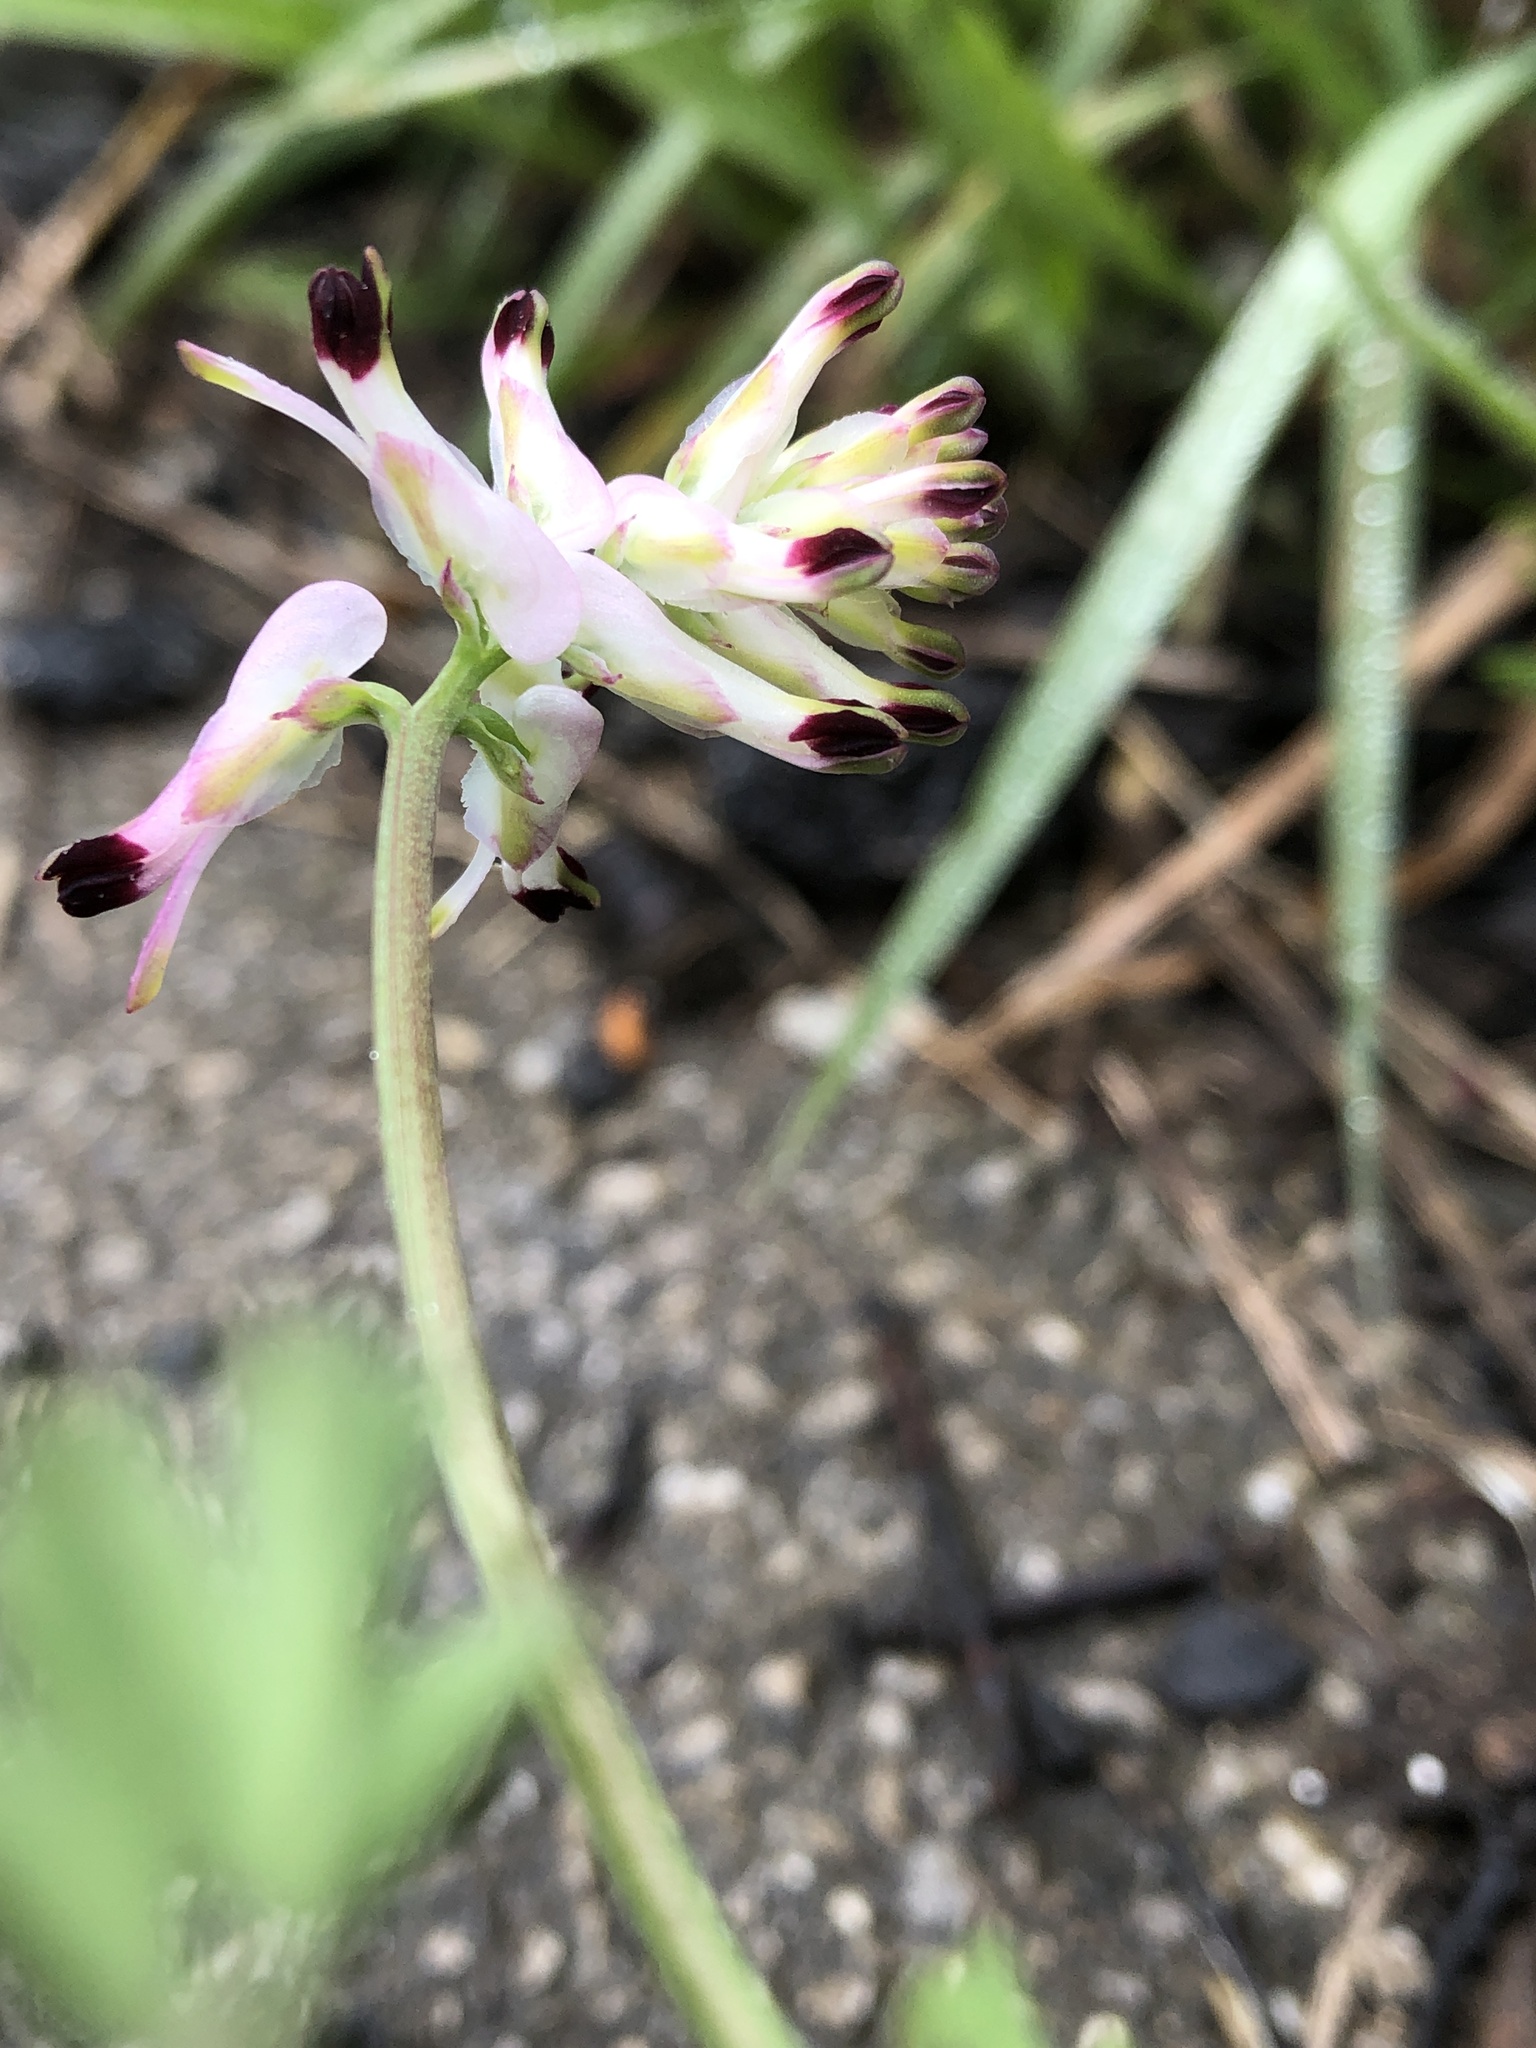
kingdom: Plantae
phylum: Tracheophyta
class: Magnoliopsida
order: Ranunculales
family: Papaveraceae
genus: Fumaria
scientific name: Fumaria capreolata
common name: White ramping-fumitory
